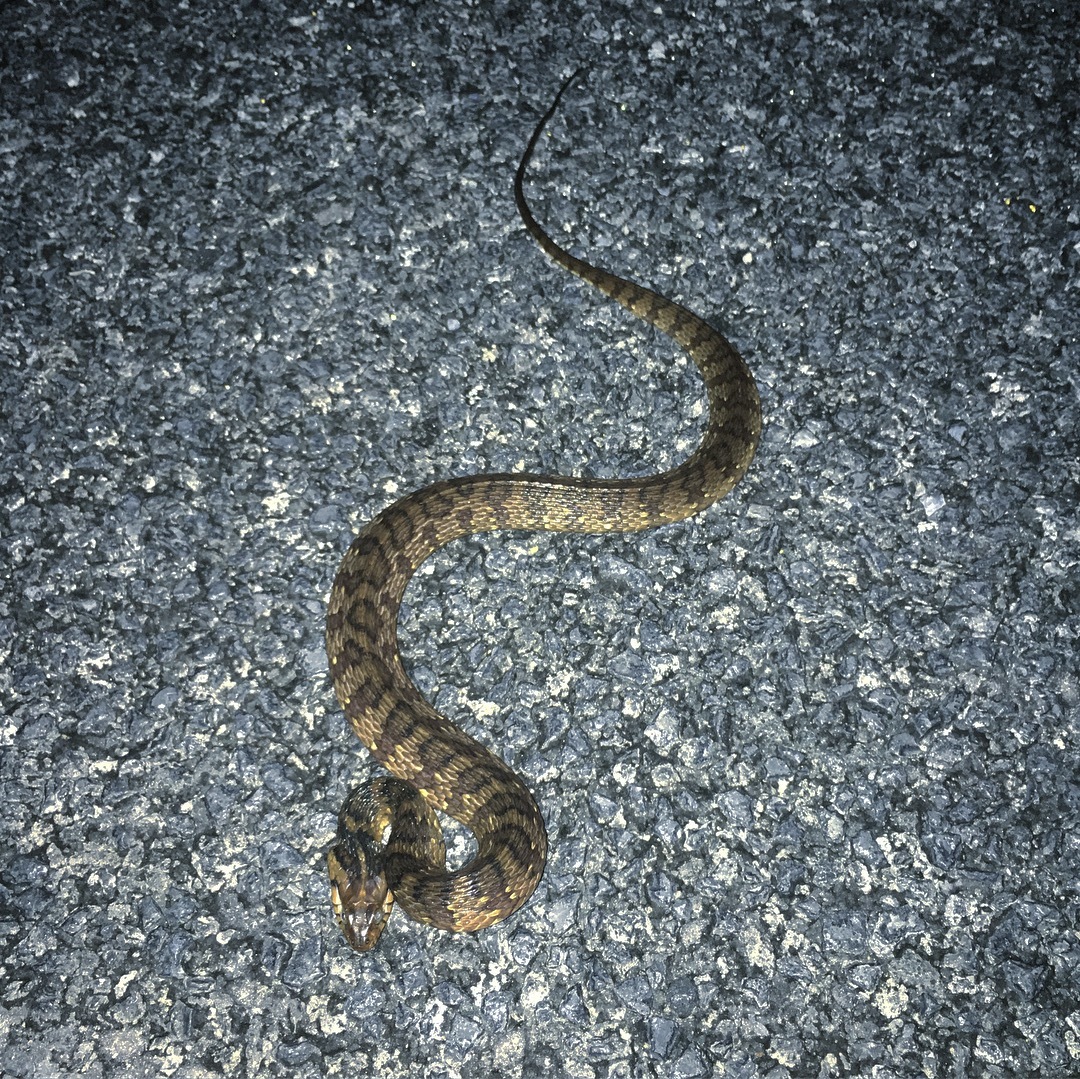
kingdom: Animalia
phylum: Chordata
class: Squamata
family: Colubridae
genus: Nerodia
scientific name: Nerodia fasciata
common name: Southern water snake
